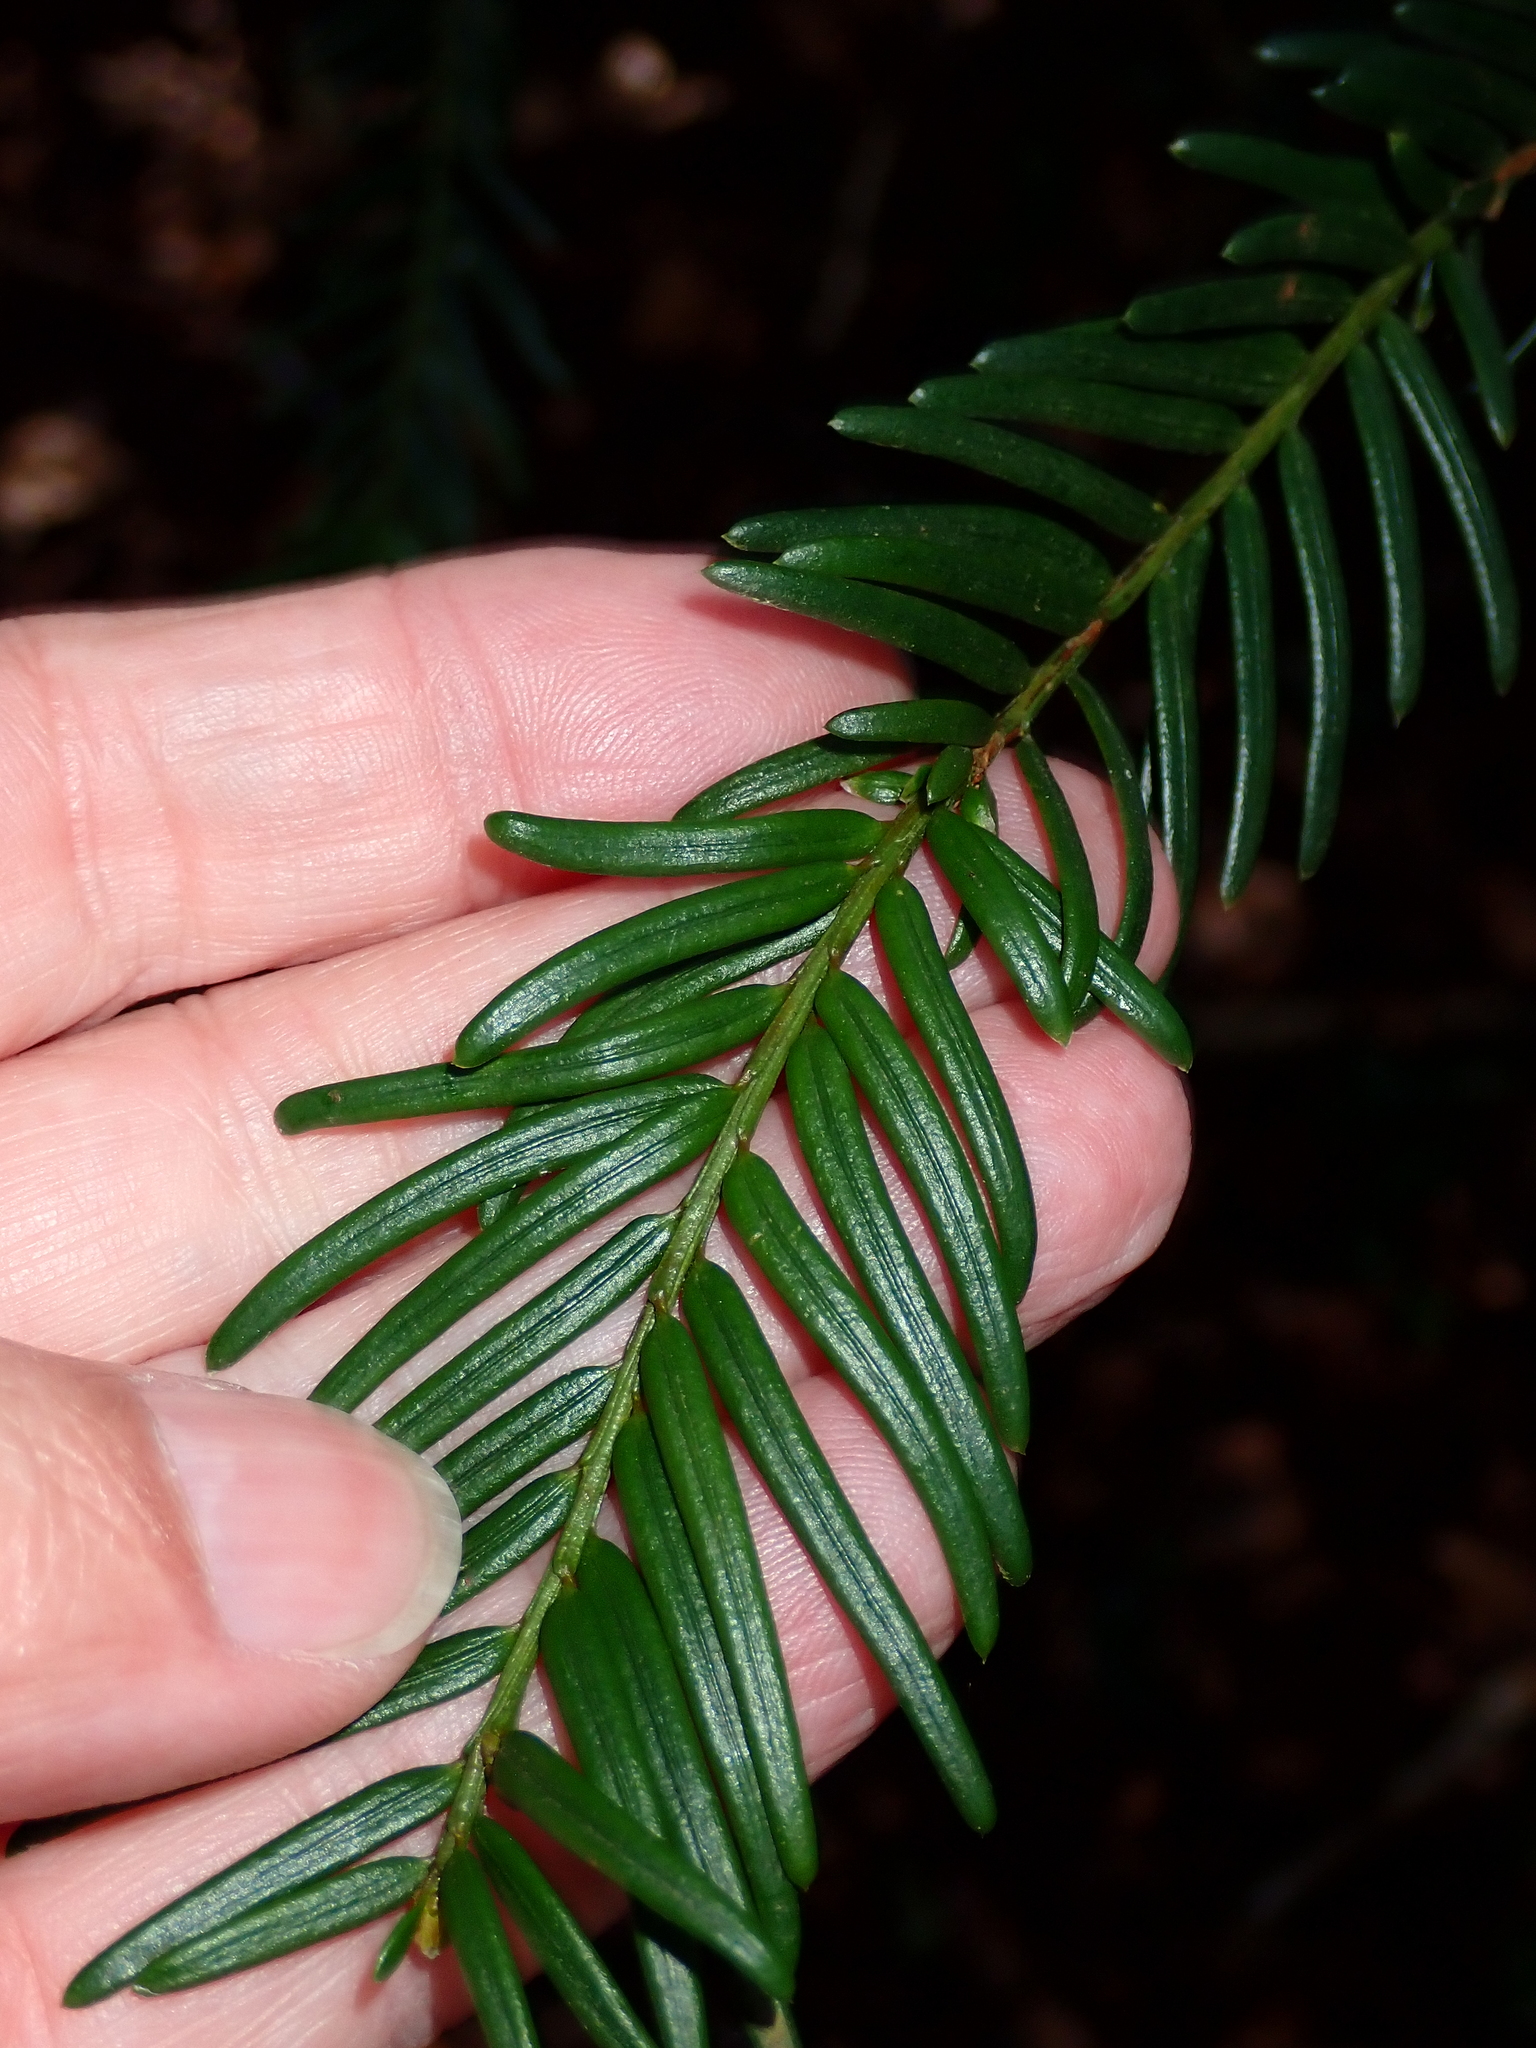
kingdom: Plantae
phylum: Tracheophyta
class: Pinopsida
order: Pinales
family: Taxaceae
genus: Taxus
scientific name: Taxus baccata
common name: Yew
